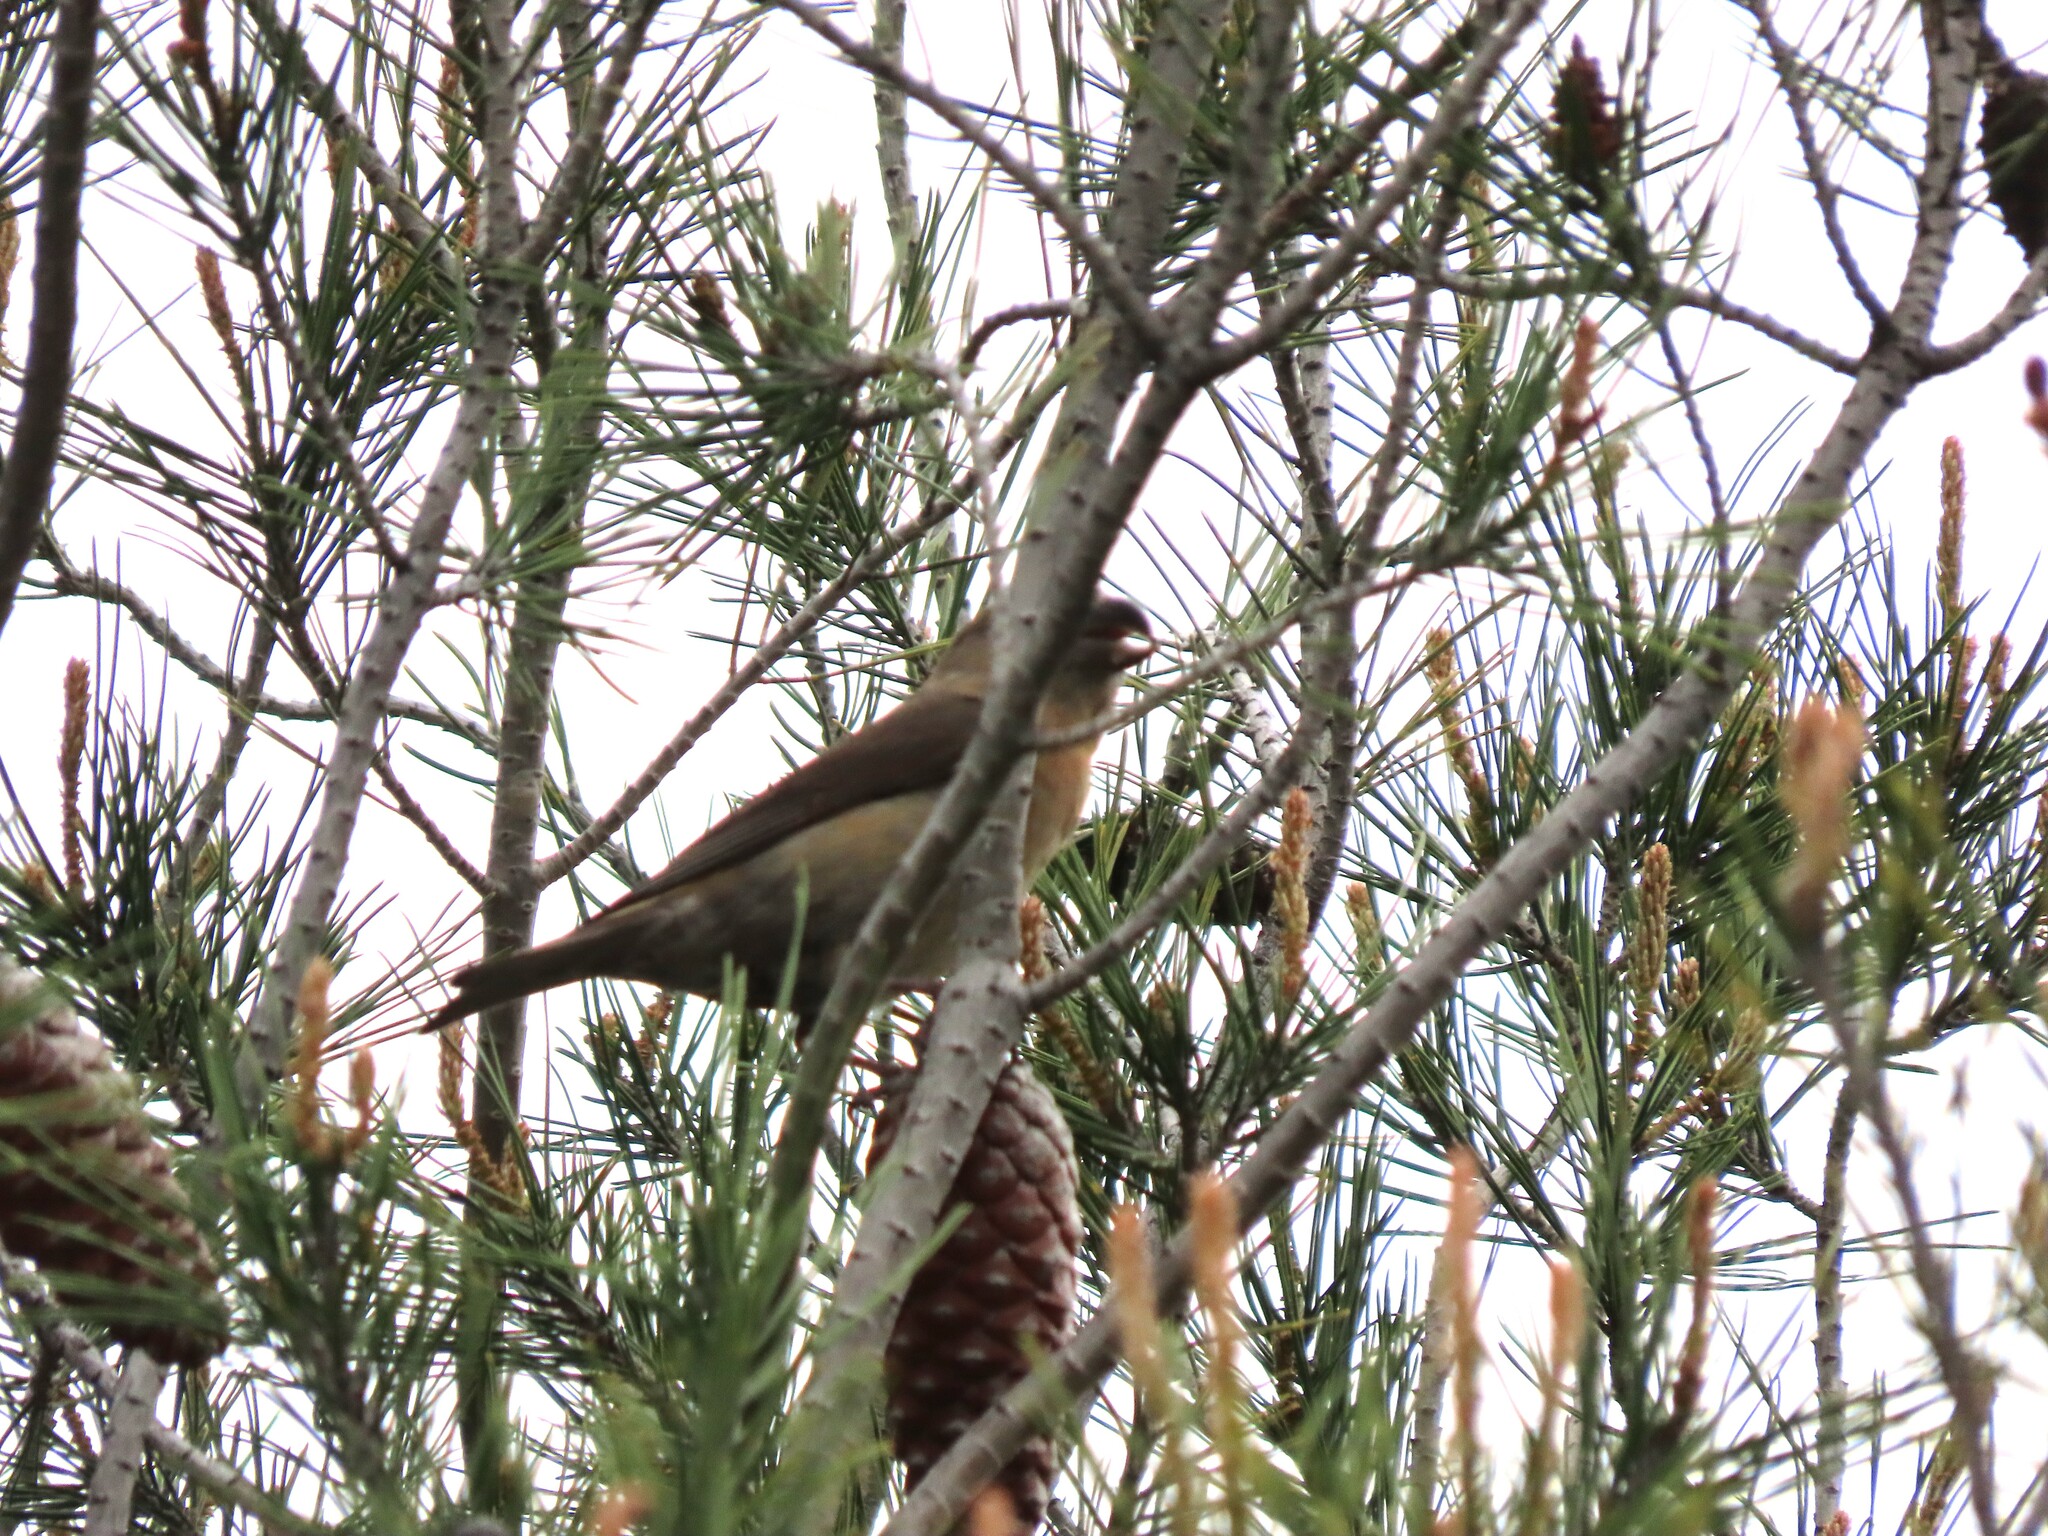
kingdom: Animalia
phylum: Chordata
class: Aves
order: Passeriformes
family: Fringillidae
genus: Loxia
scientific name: Loxia curvirostra
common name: Red crossbill
